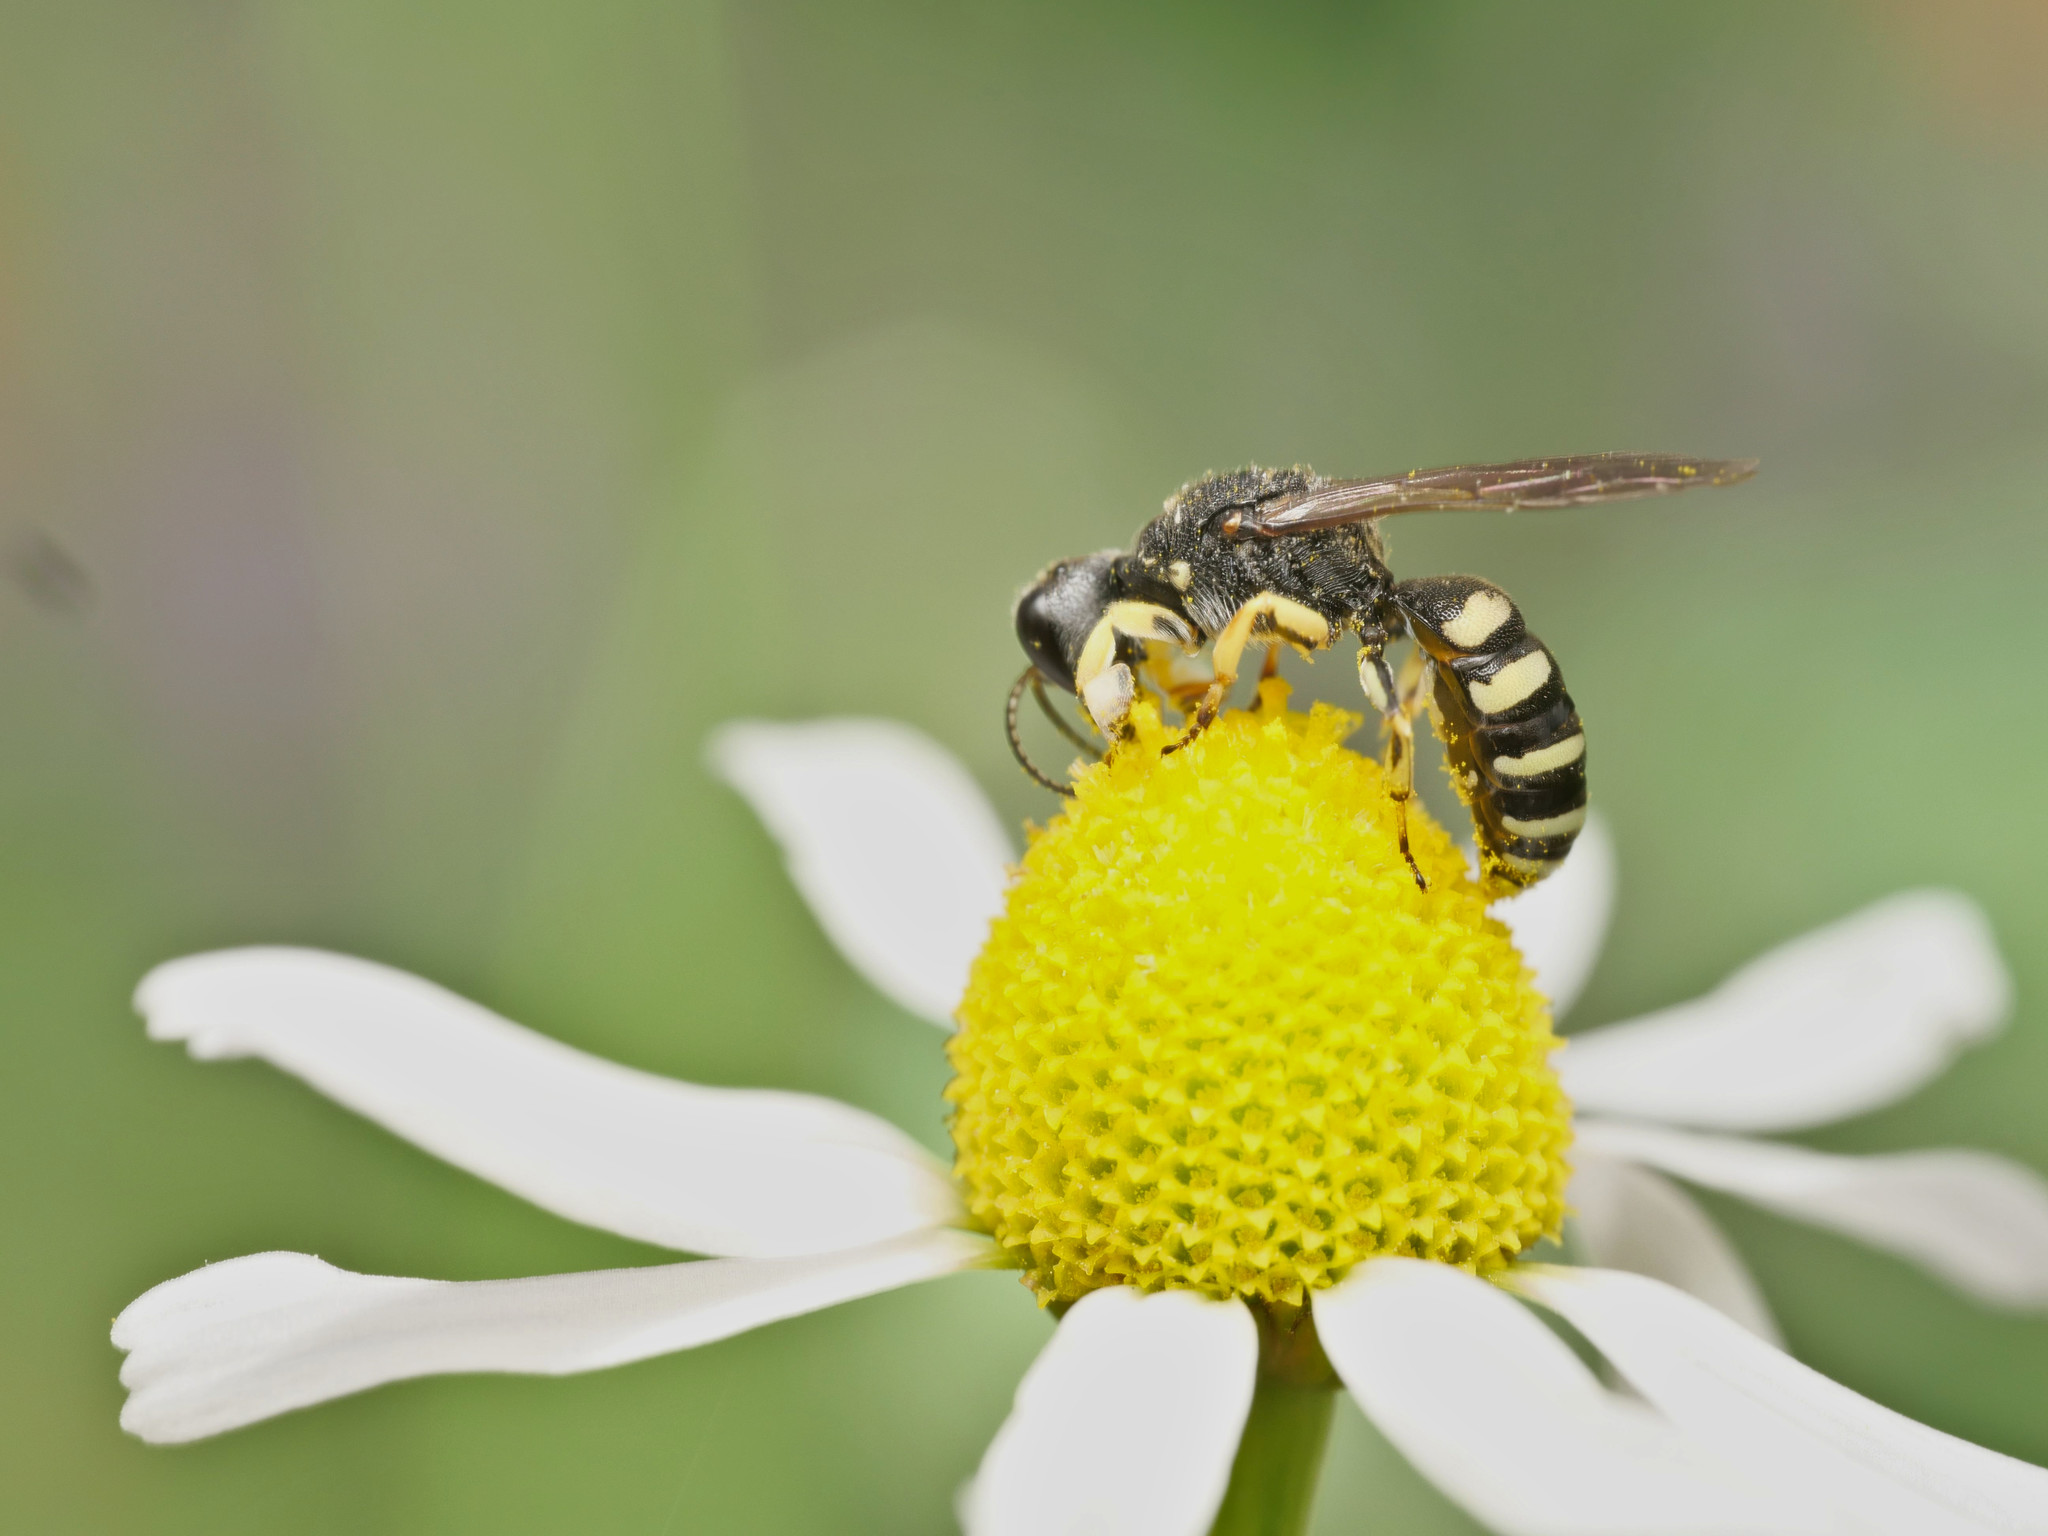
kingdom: Animalia
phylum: Arthropoda
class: Insecta
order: Hymenoptera
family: Crabronidae
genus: Lestica
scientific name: Lestica clypeata
